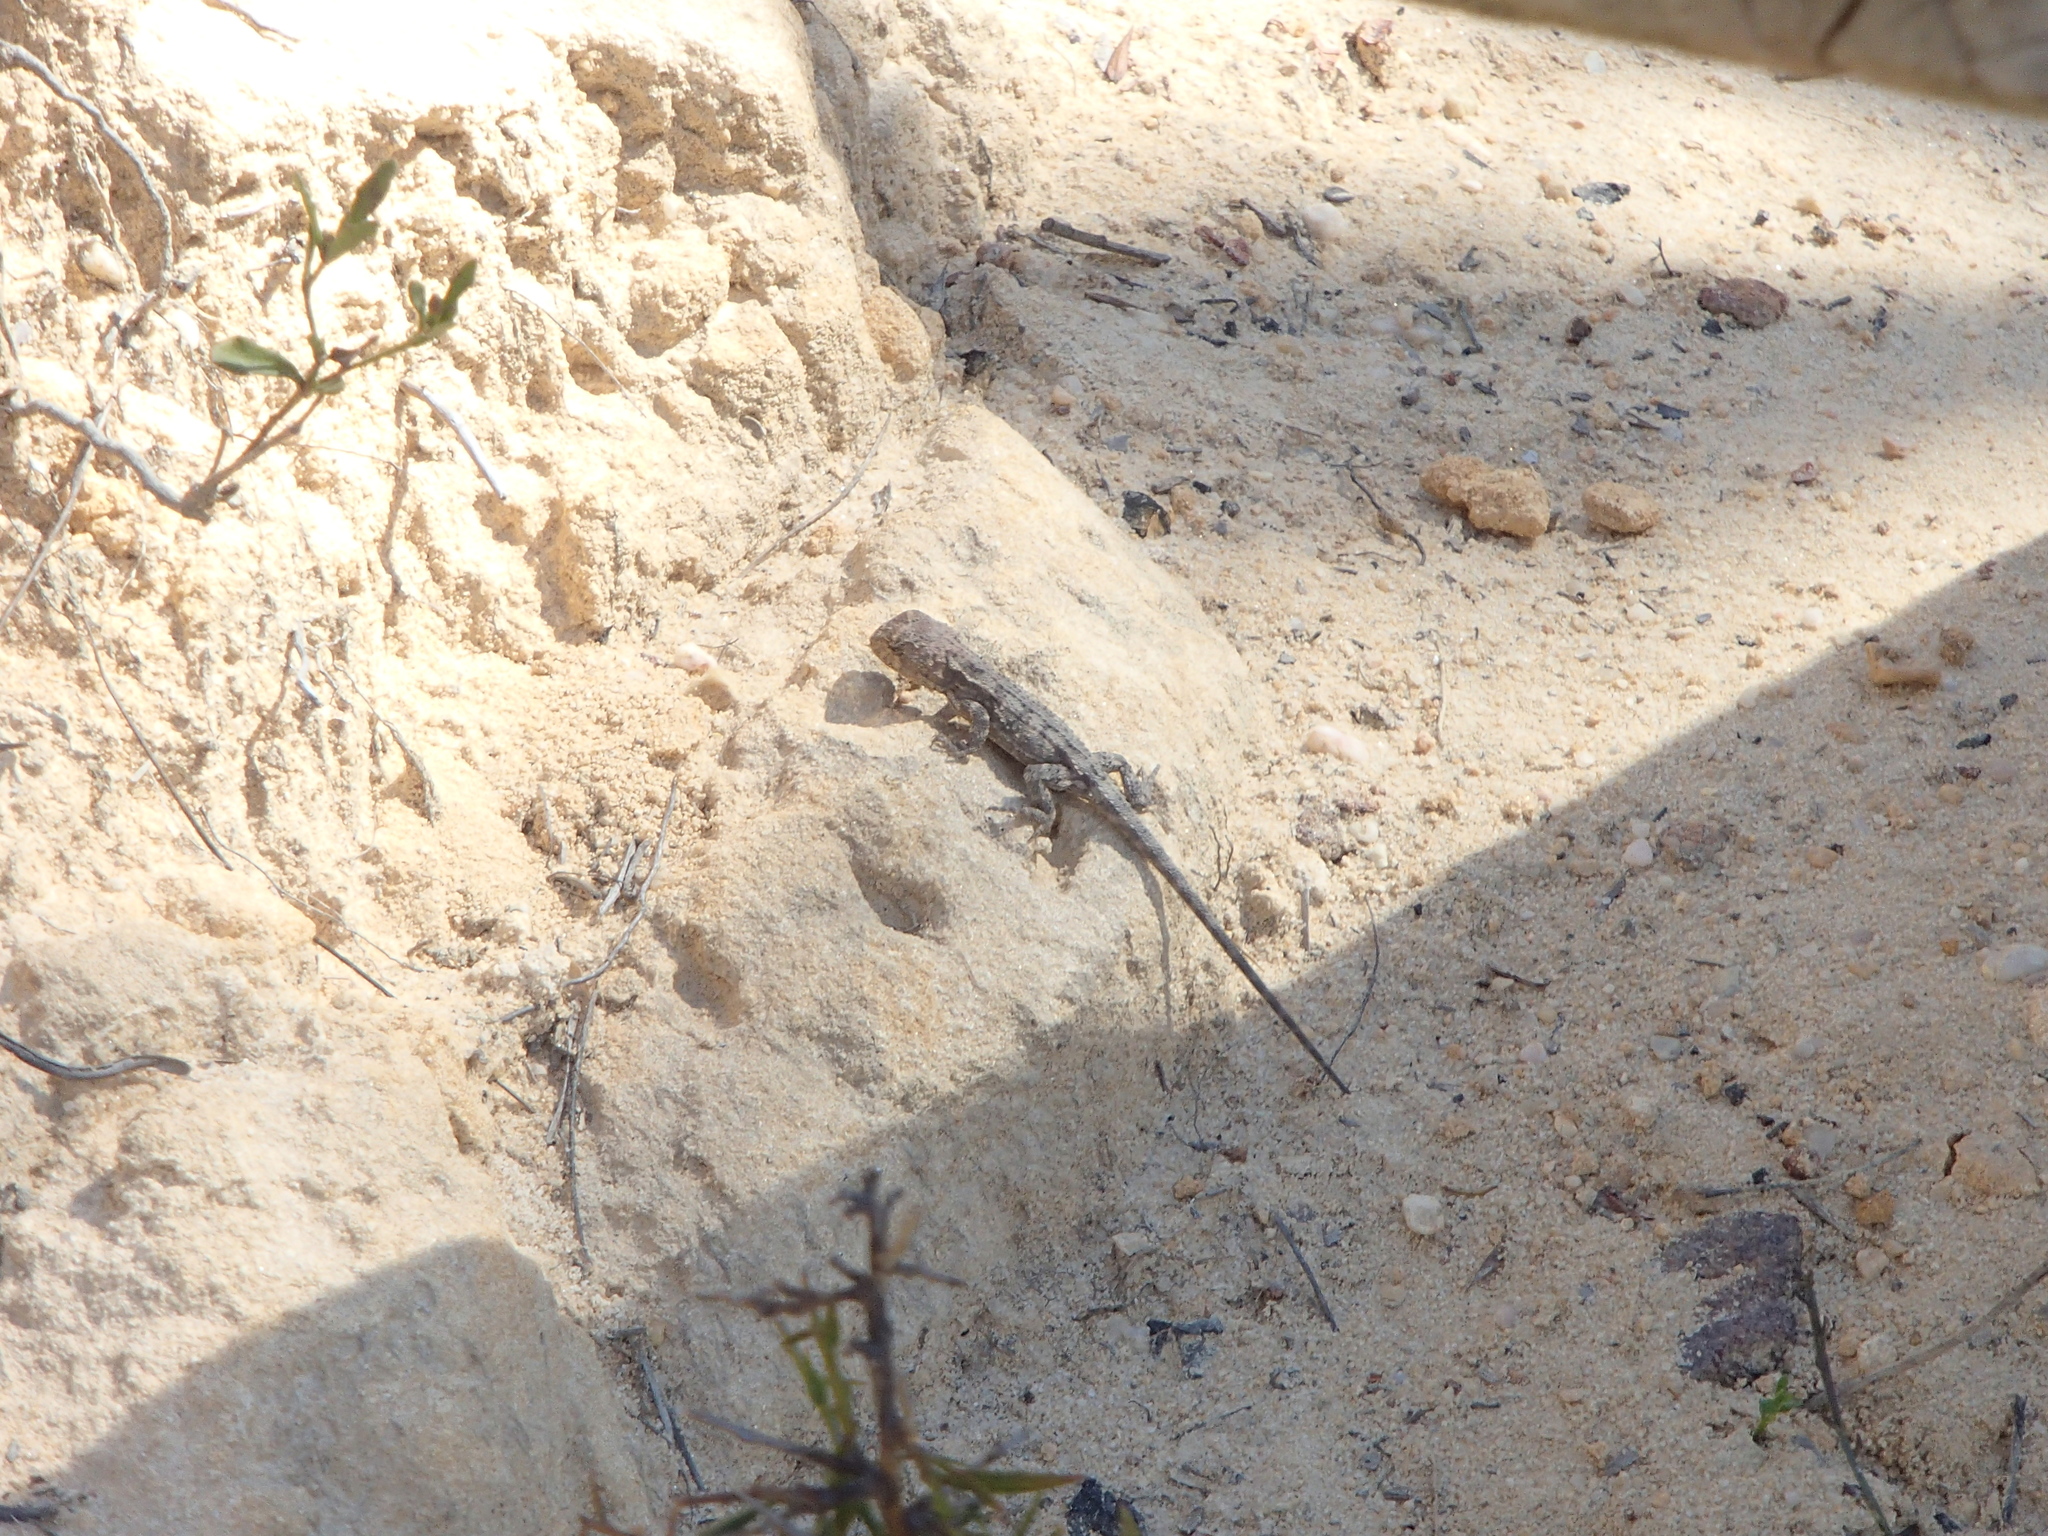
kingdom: Animalia
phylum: Chordata
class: Squamata
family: Agamidae
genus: Rankinia
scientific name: Rankinia diemensis
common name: Mountain dragon
